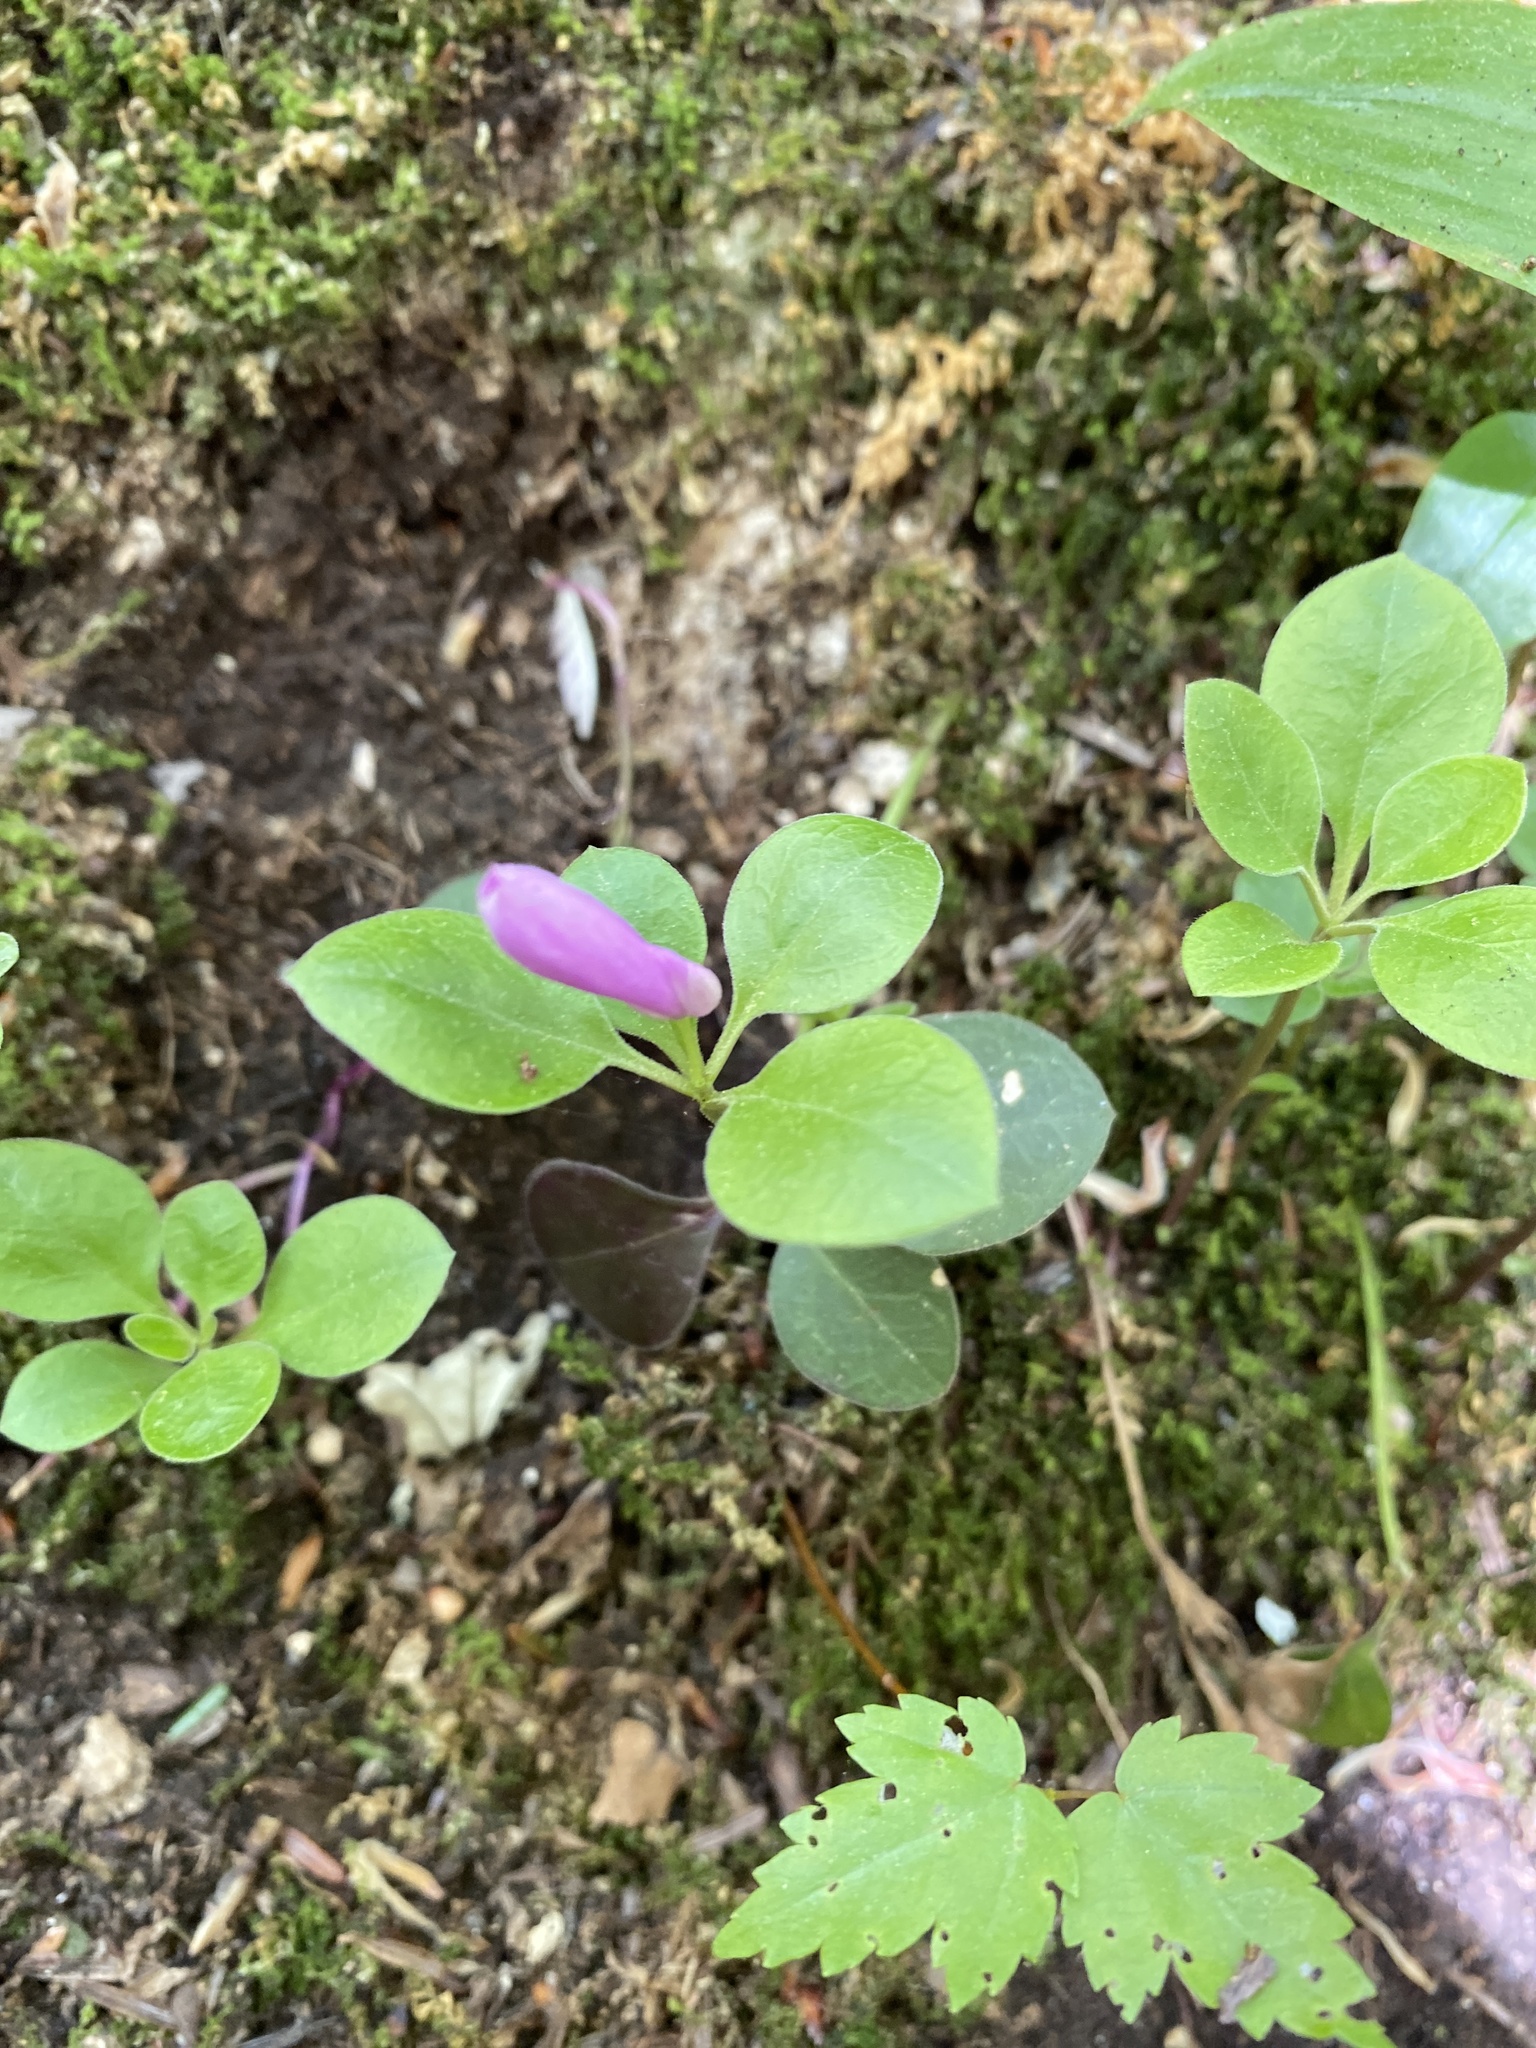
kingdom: Plantae
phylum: Tracheophyta
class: Magnoliopsida
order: Fabales
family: Polygalaceae
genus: Polygaloides
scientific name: Polygaloides paucifolia
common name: Bird-on-the-wing
